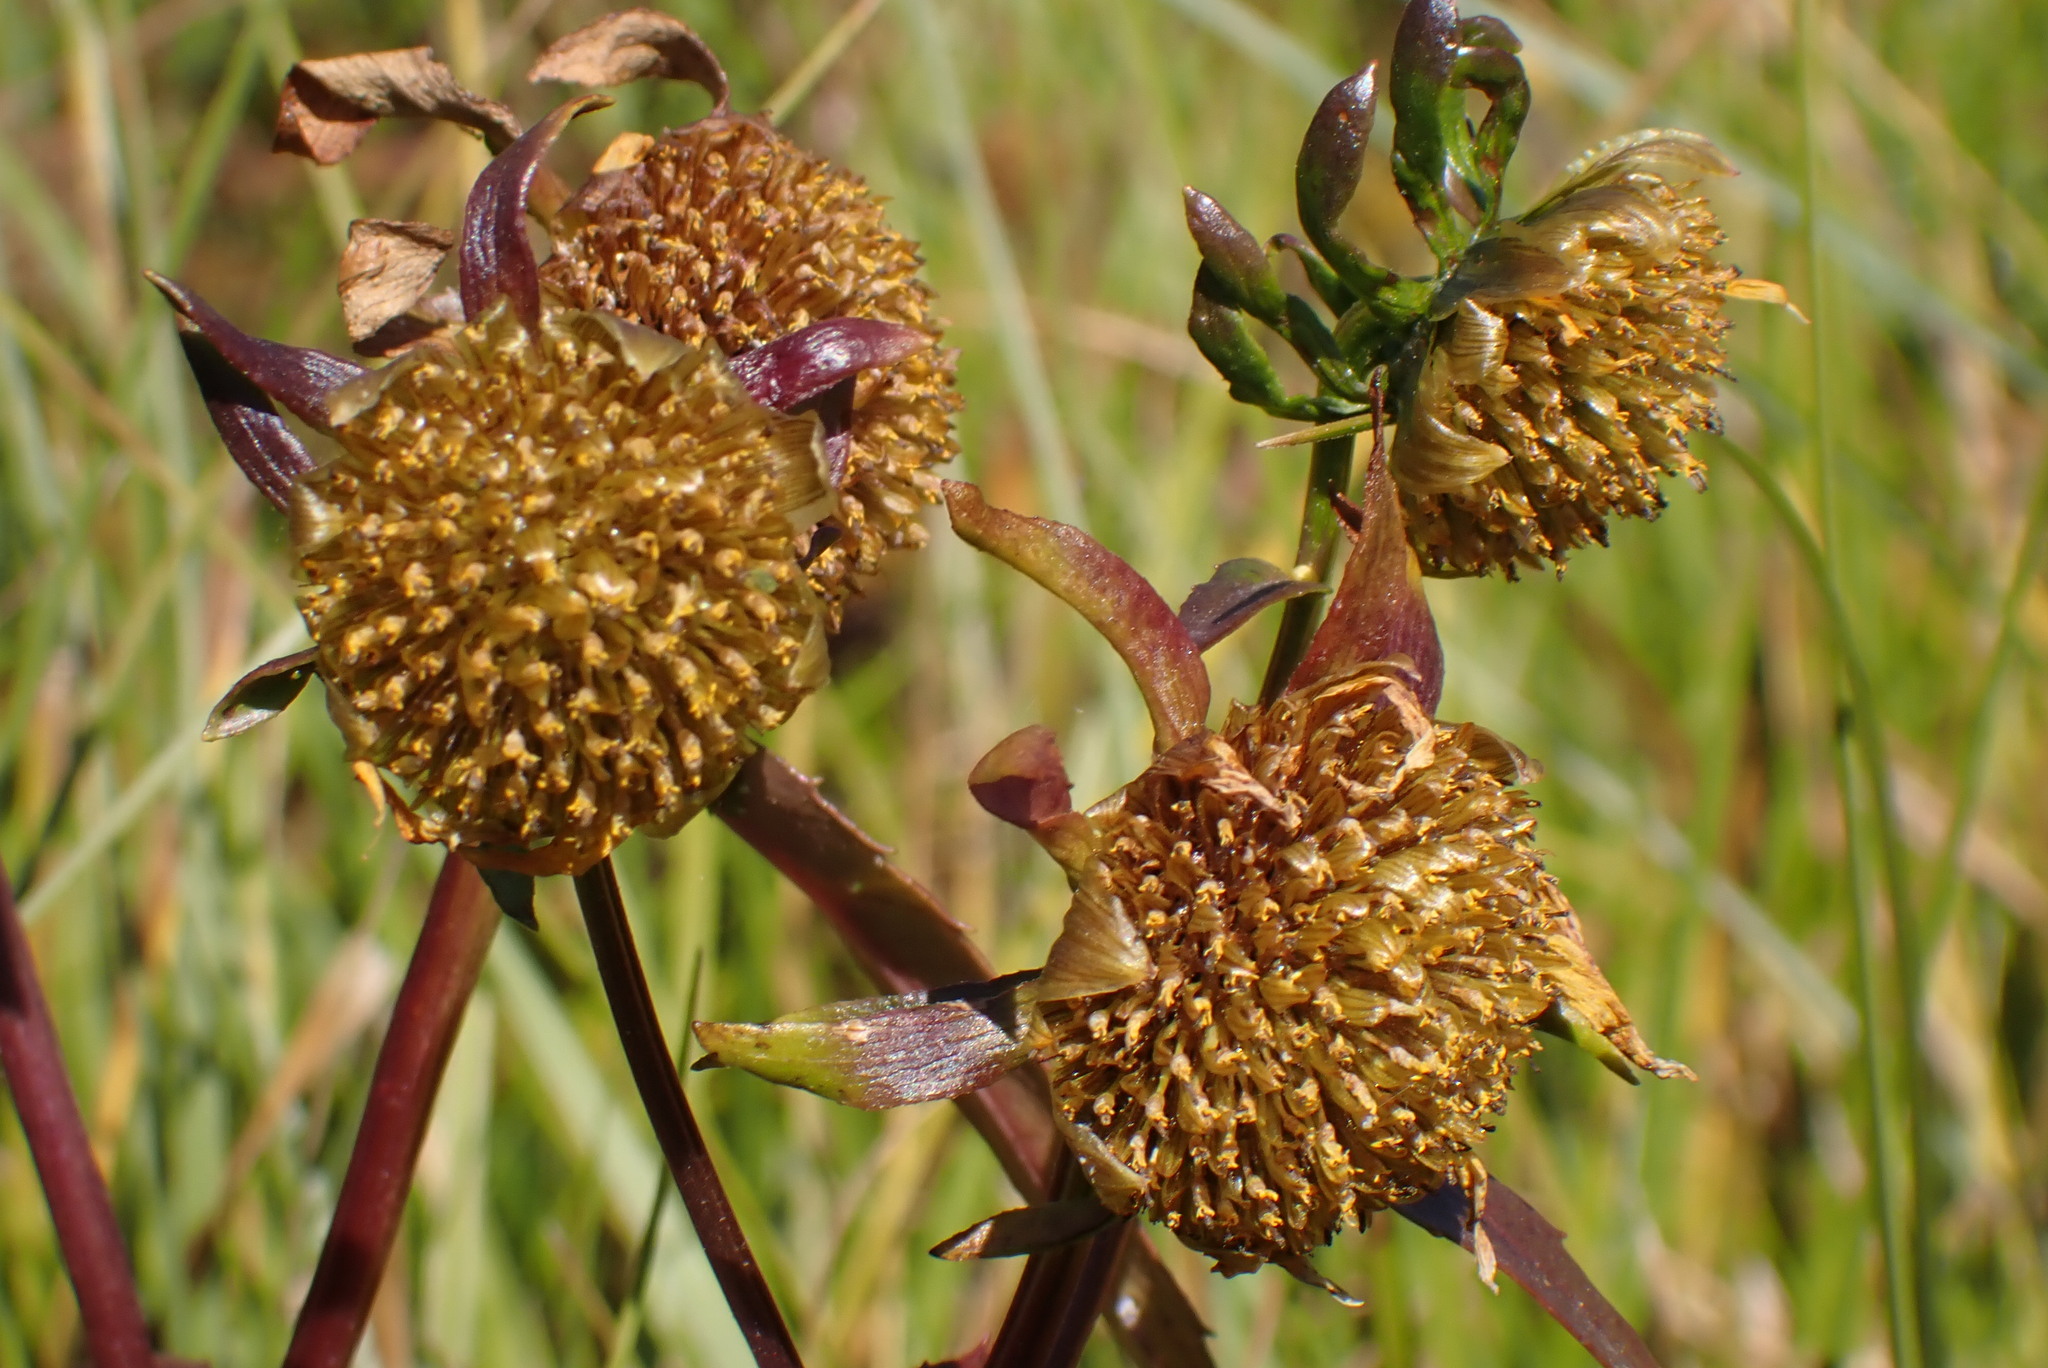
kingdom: Plantae
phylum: Tracheophyta
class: Magnoliopsida
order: Asterales
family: Asteraceae
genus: Bidens
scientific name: Bidens cernua
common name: Nodding bur-marigold
